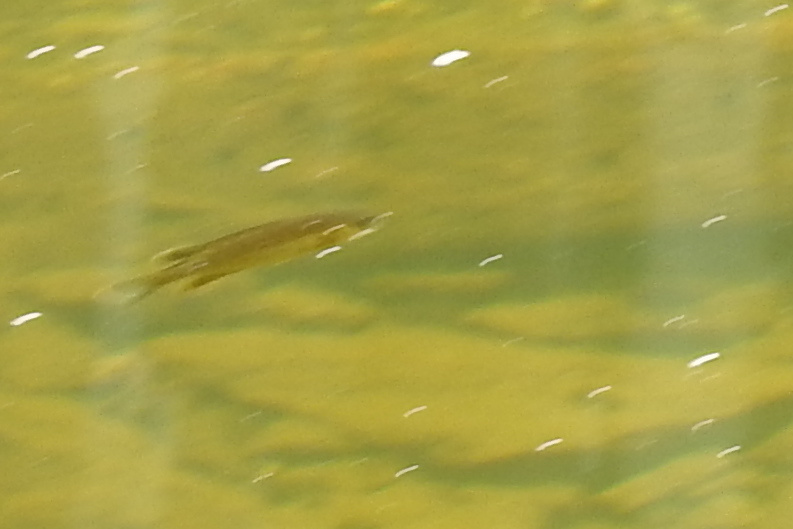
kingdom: Animalia
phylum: Chordata
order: Perciformes
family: Centrarchidae
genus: Lepomis
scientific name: Lepomis
